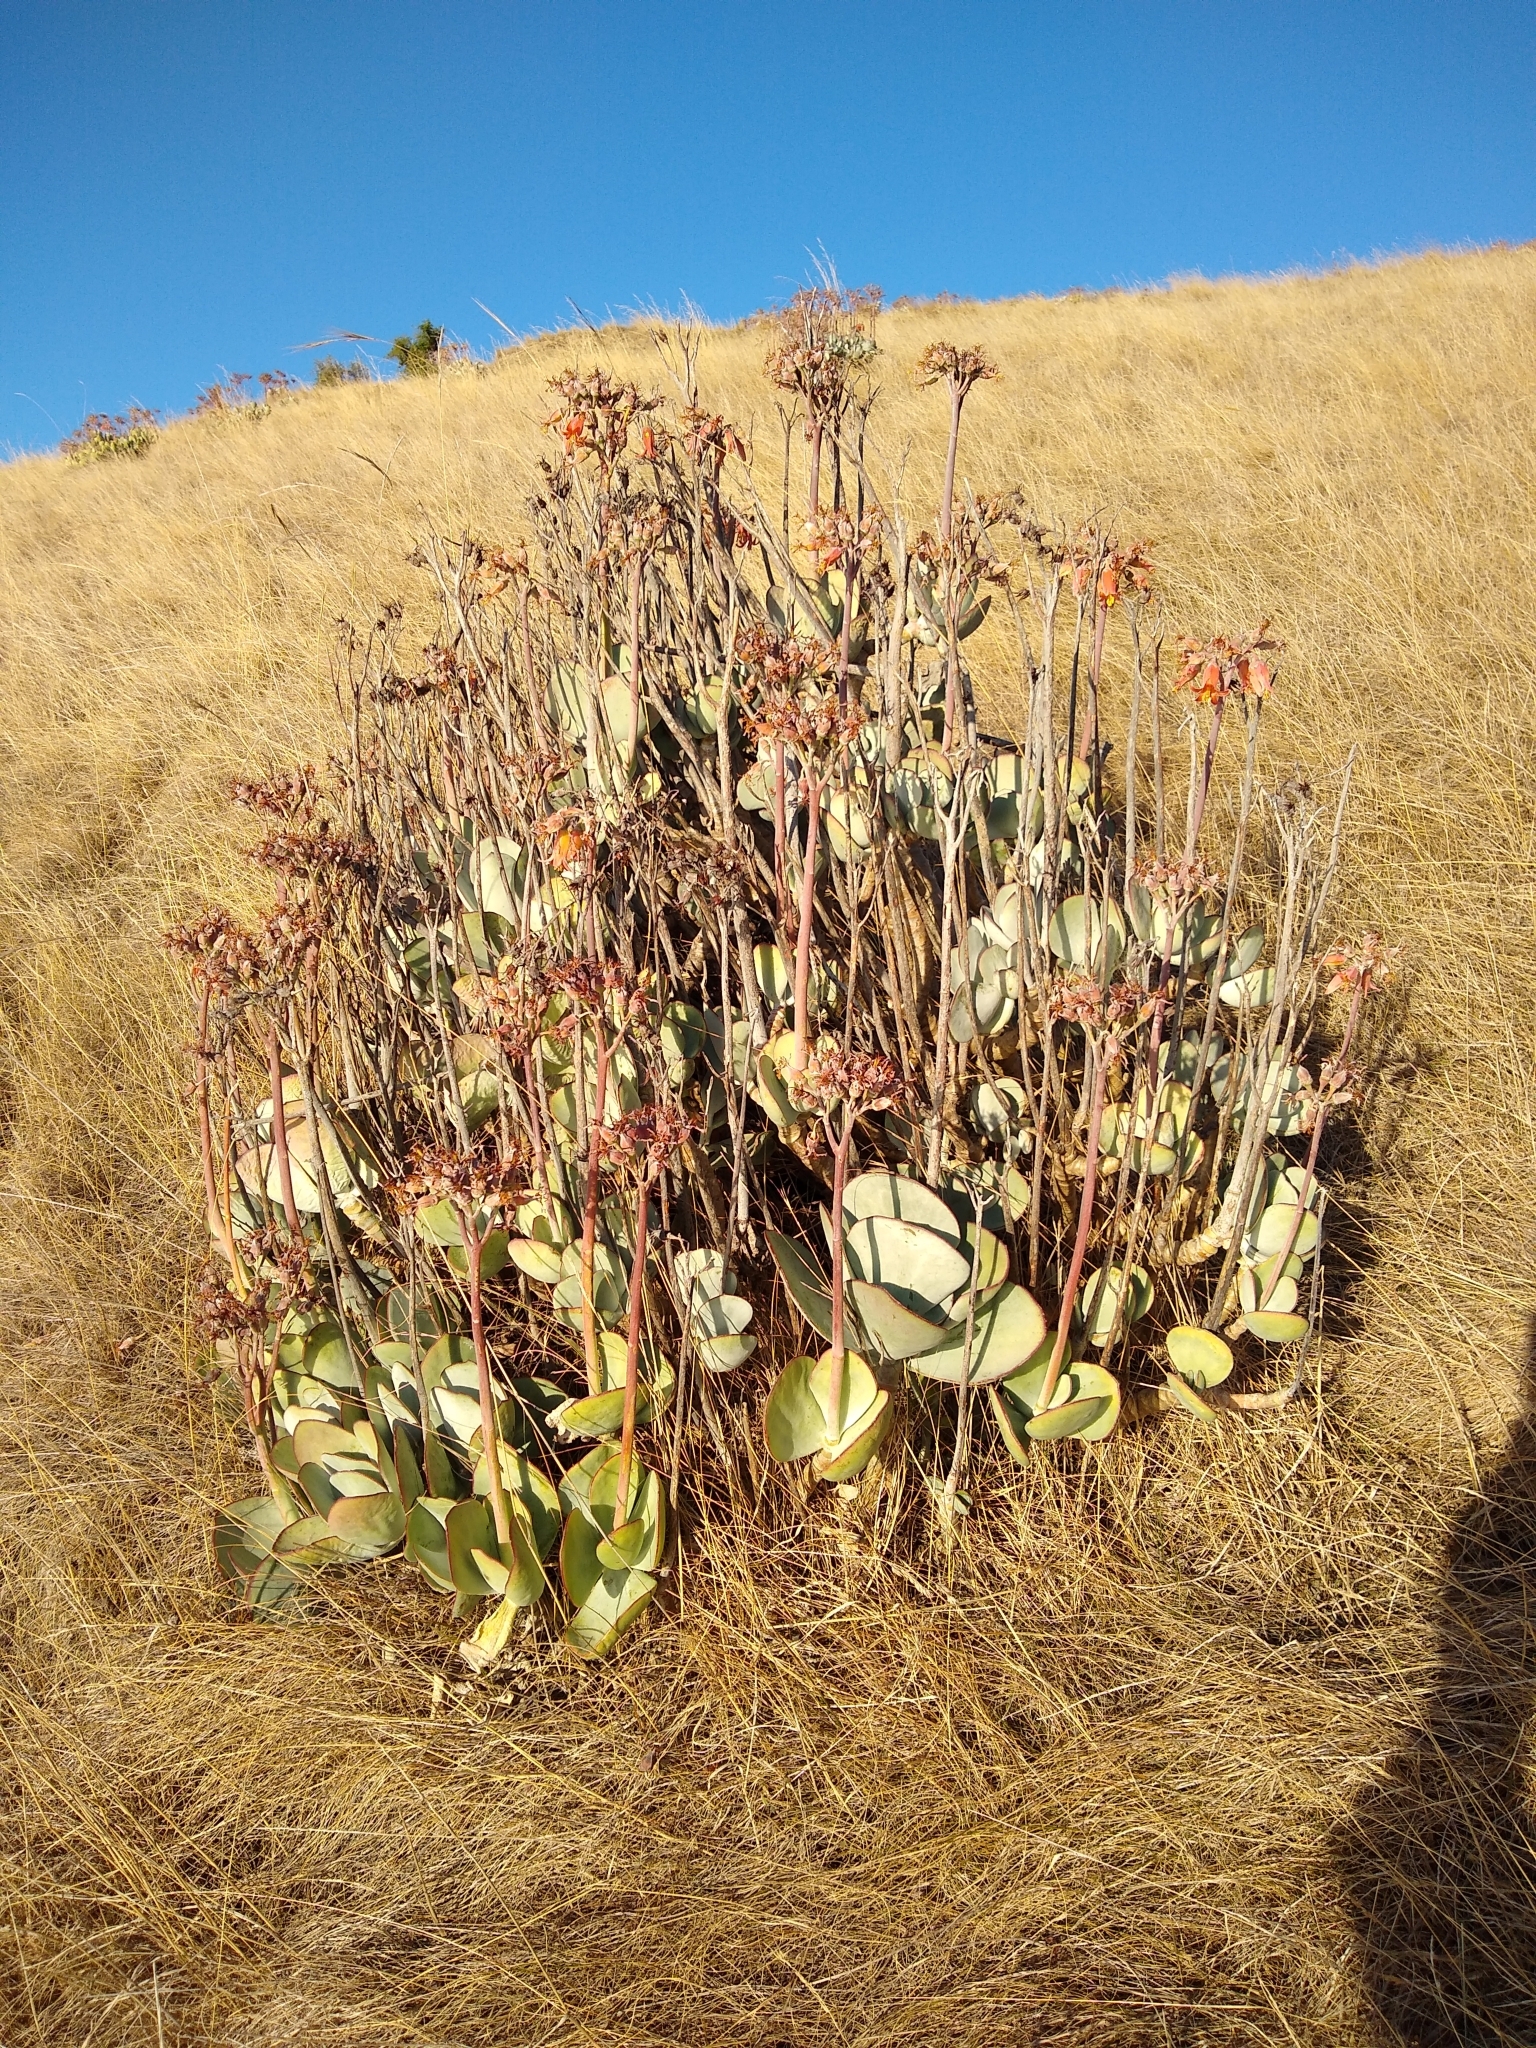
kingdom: Plantae
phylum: Tracheophyta
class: Magnoliopsida
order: Saxifragales
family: Crassulaceae
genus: Cotyledon
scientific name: Cotyledon orbiculata
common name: Pig's ear
